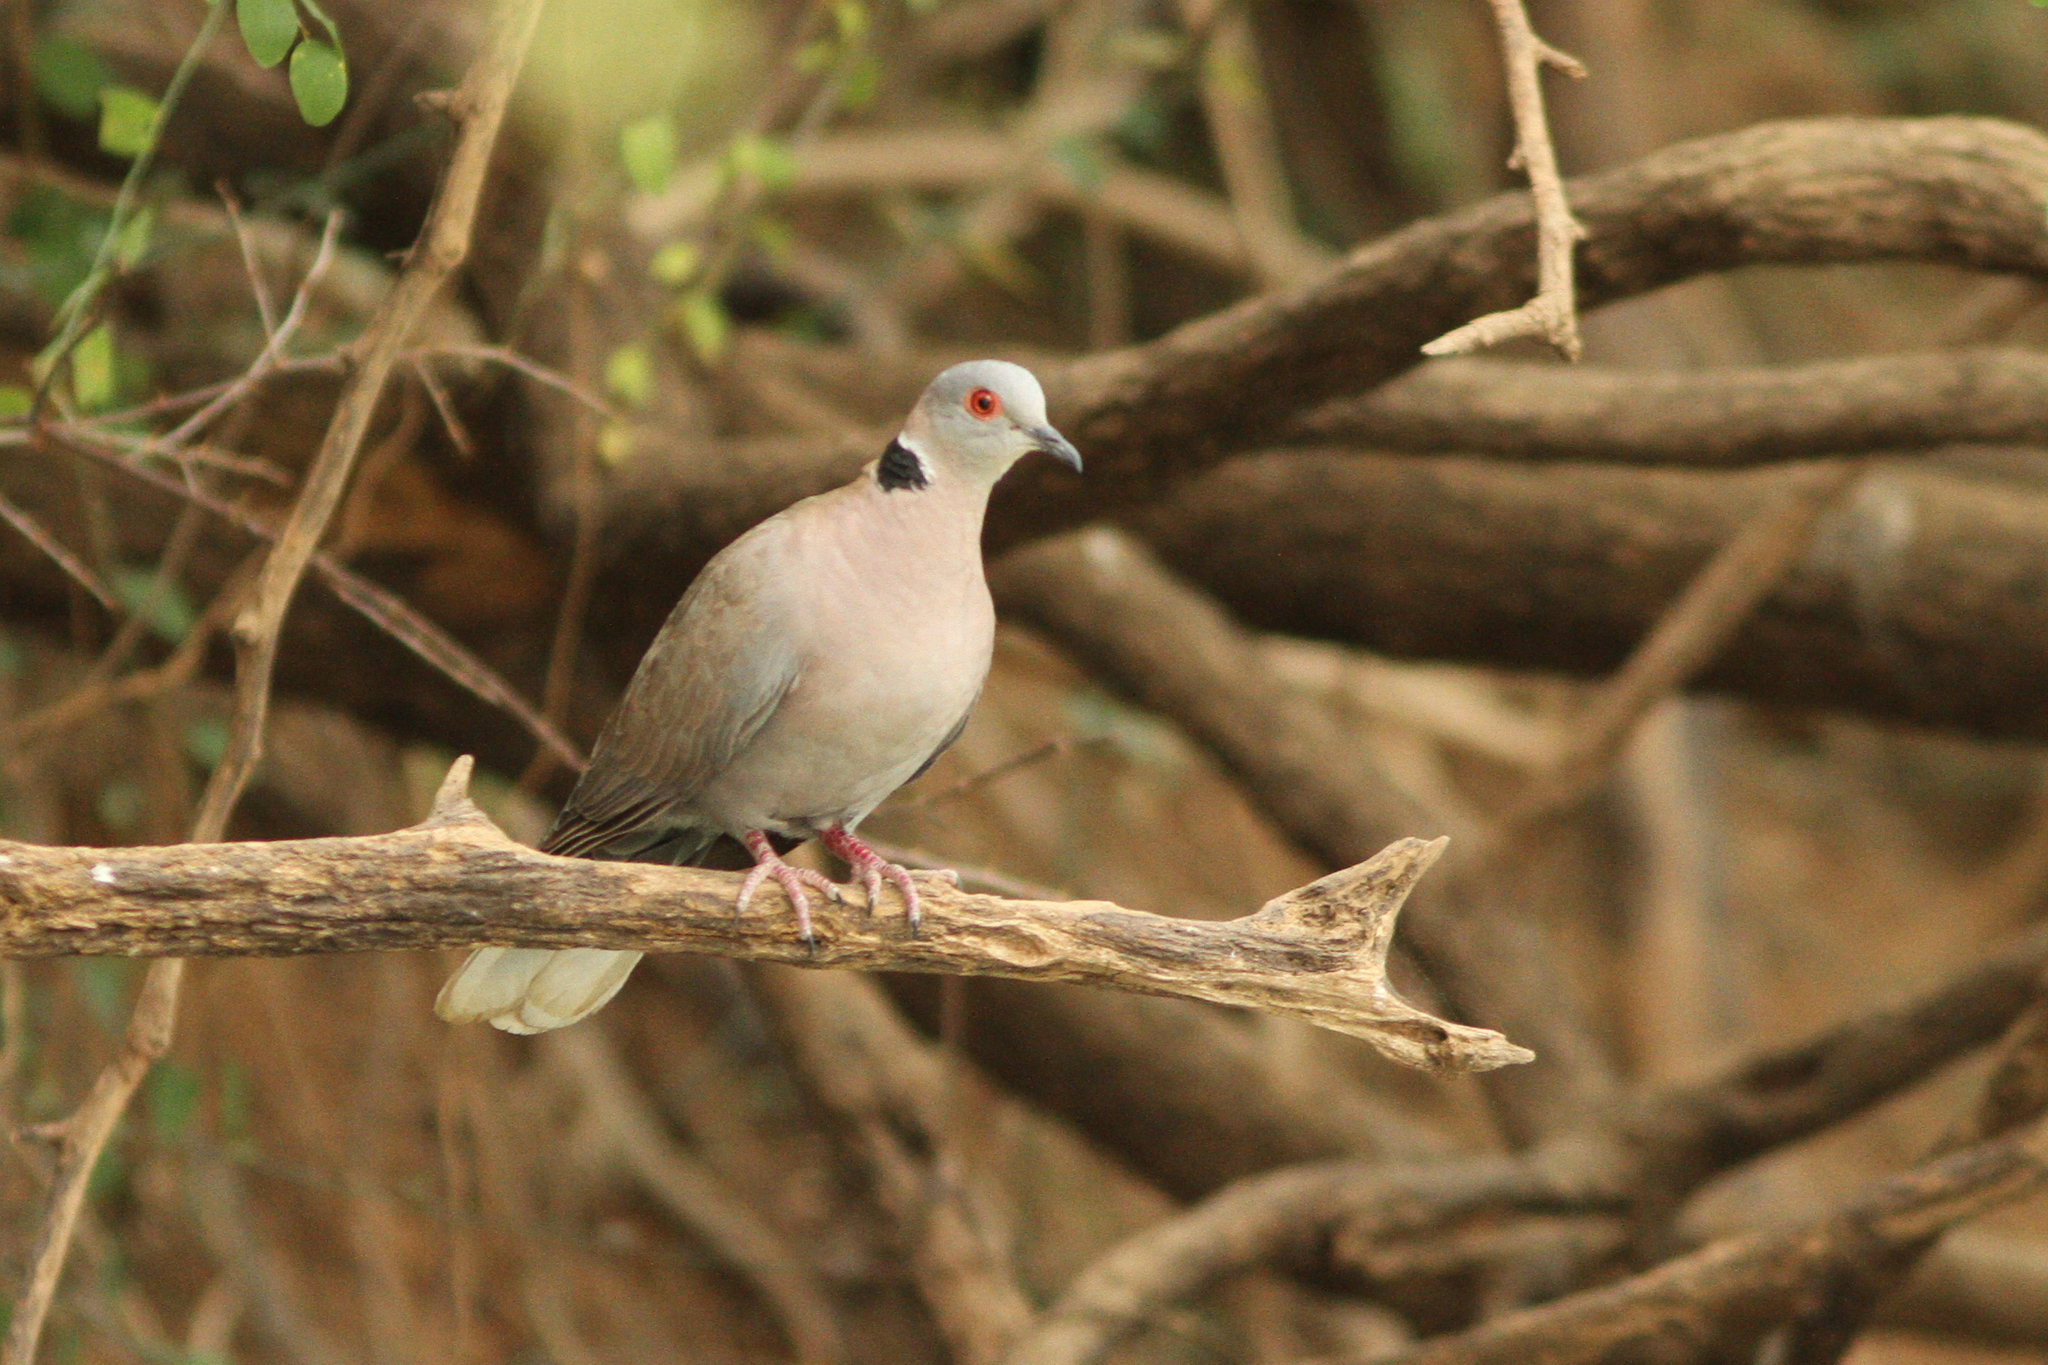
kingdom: Animalia
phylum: Chordata
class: Aves
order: Columbiformes
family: Columbidae
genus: Streptopelia
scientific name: Streptopelia decipiens
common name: Mourning collared dove
